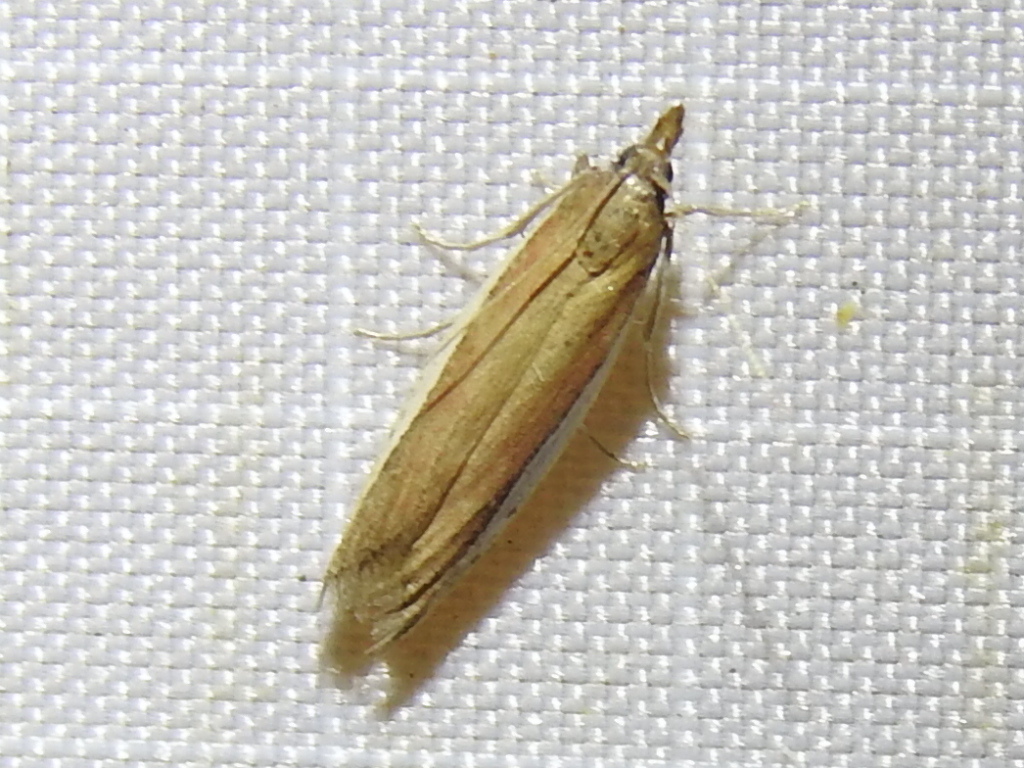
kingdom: Animalia
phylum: Arthropoda
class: Insecta
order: Lepidoptera
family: Pyralidae
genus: Tampa
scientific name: Tampa dimediatella
